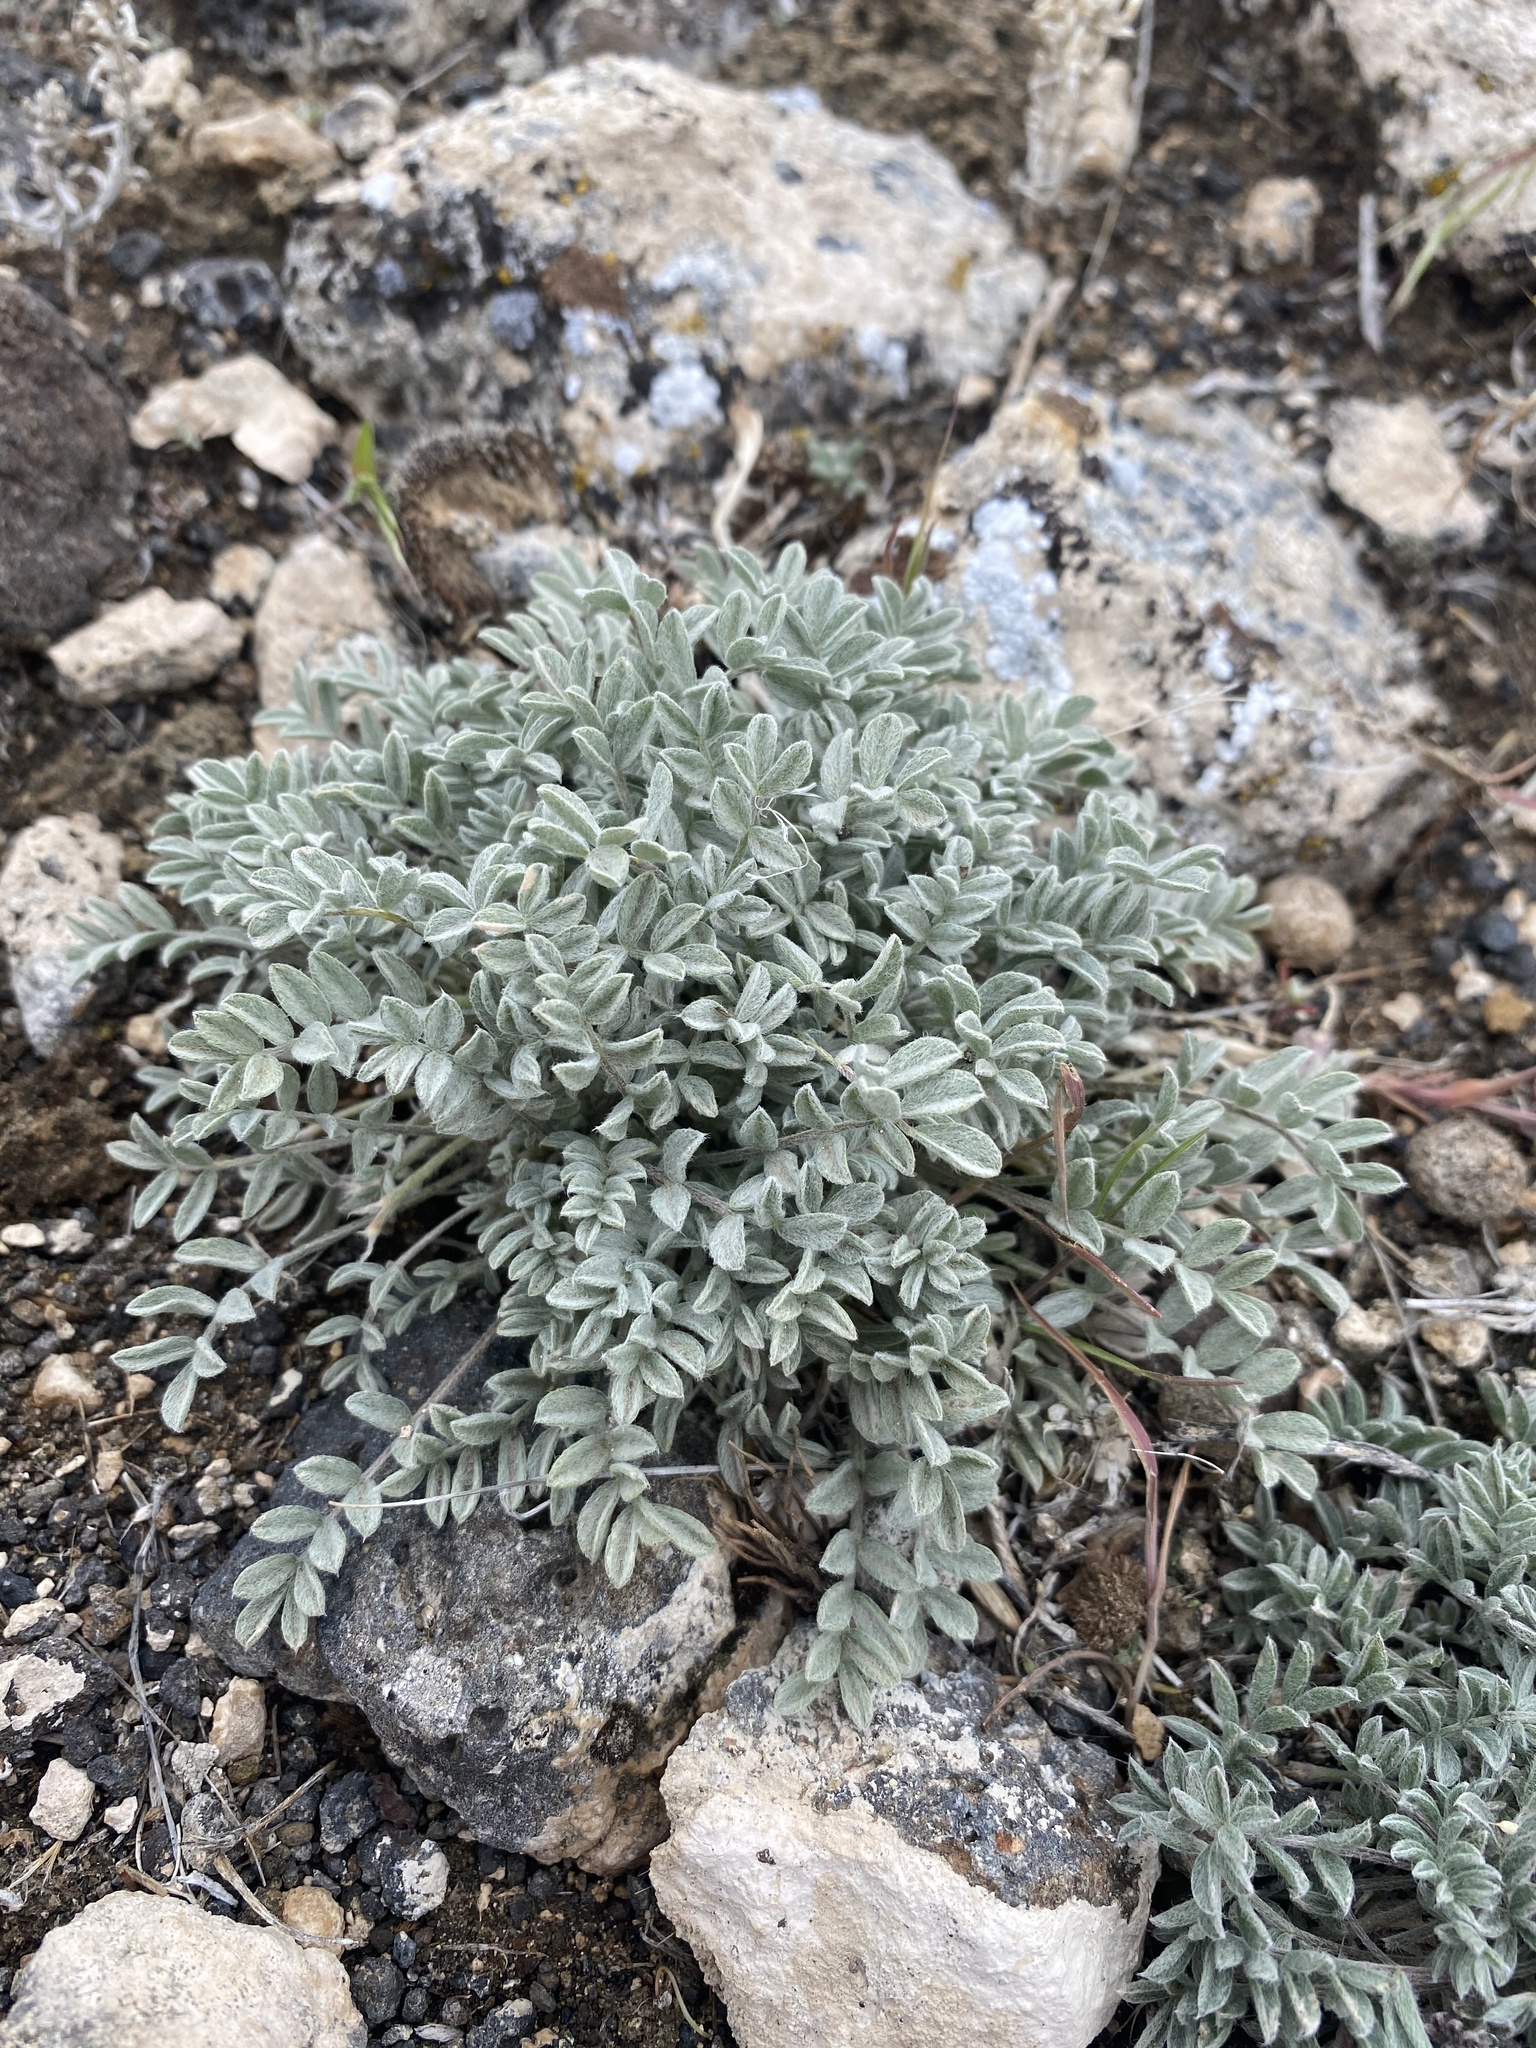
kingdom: Plantae
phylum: Tracheophyta
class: Magnoliopsida
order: Fabales
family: Fabaceae
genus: Astragalus
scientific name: Astragalus purshii
